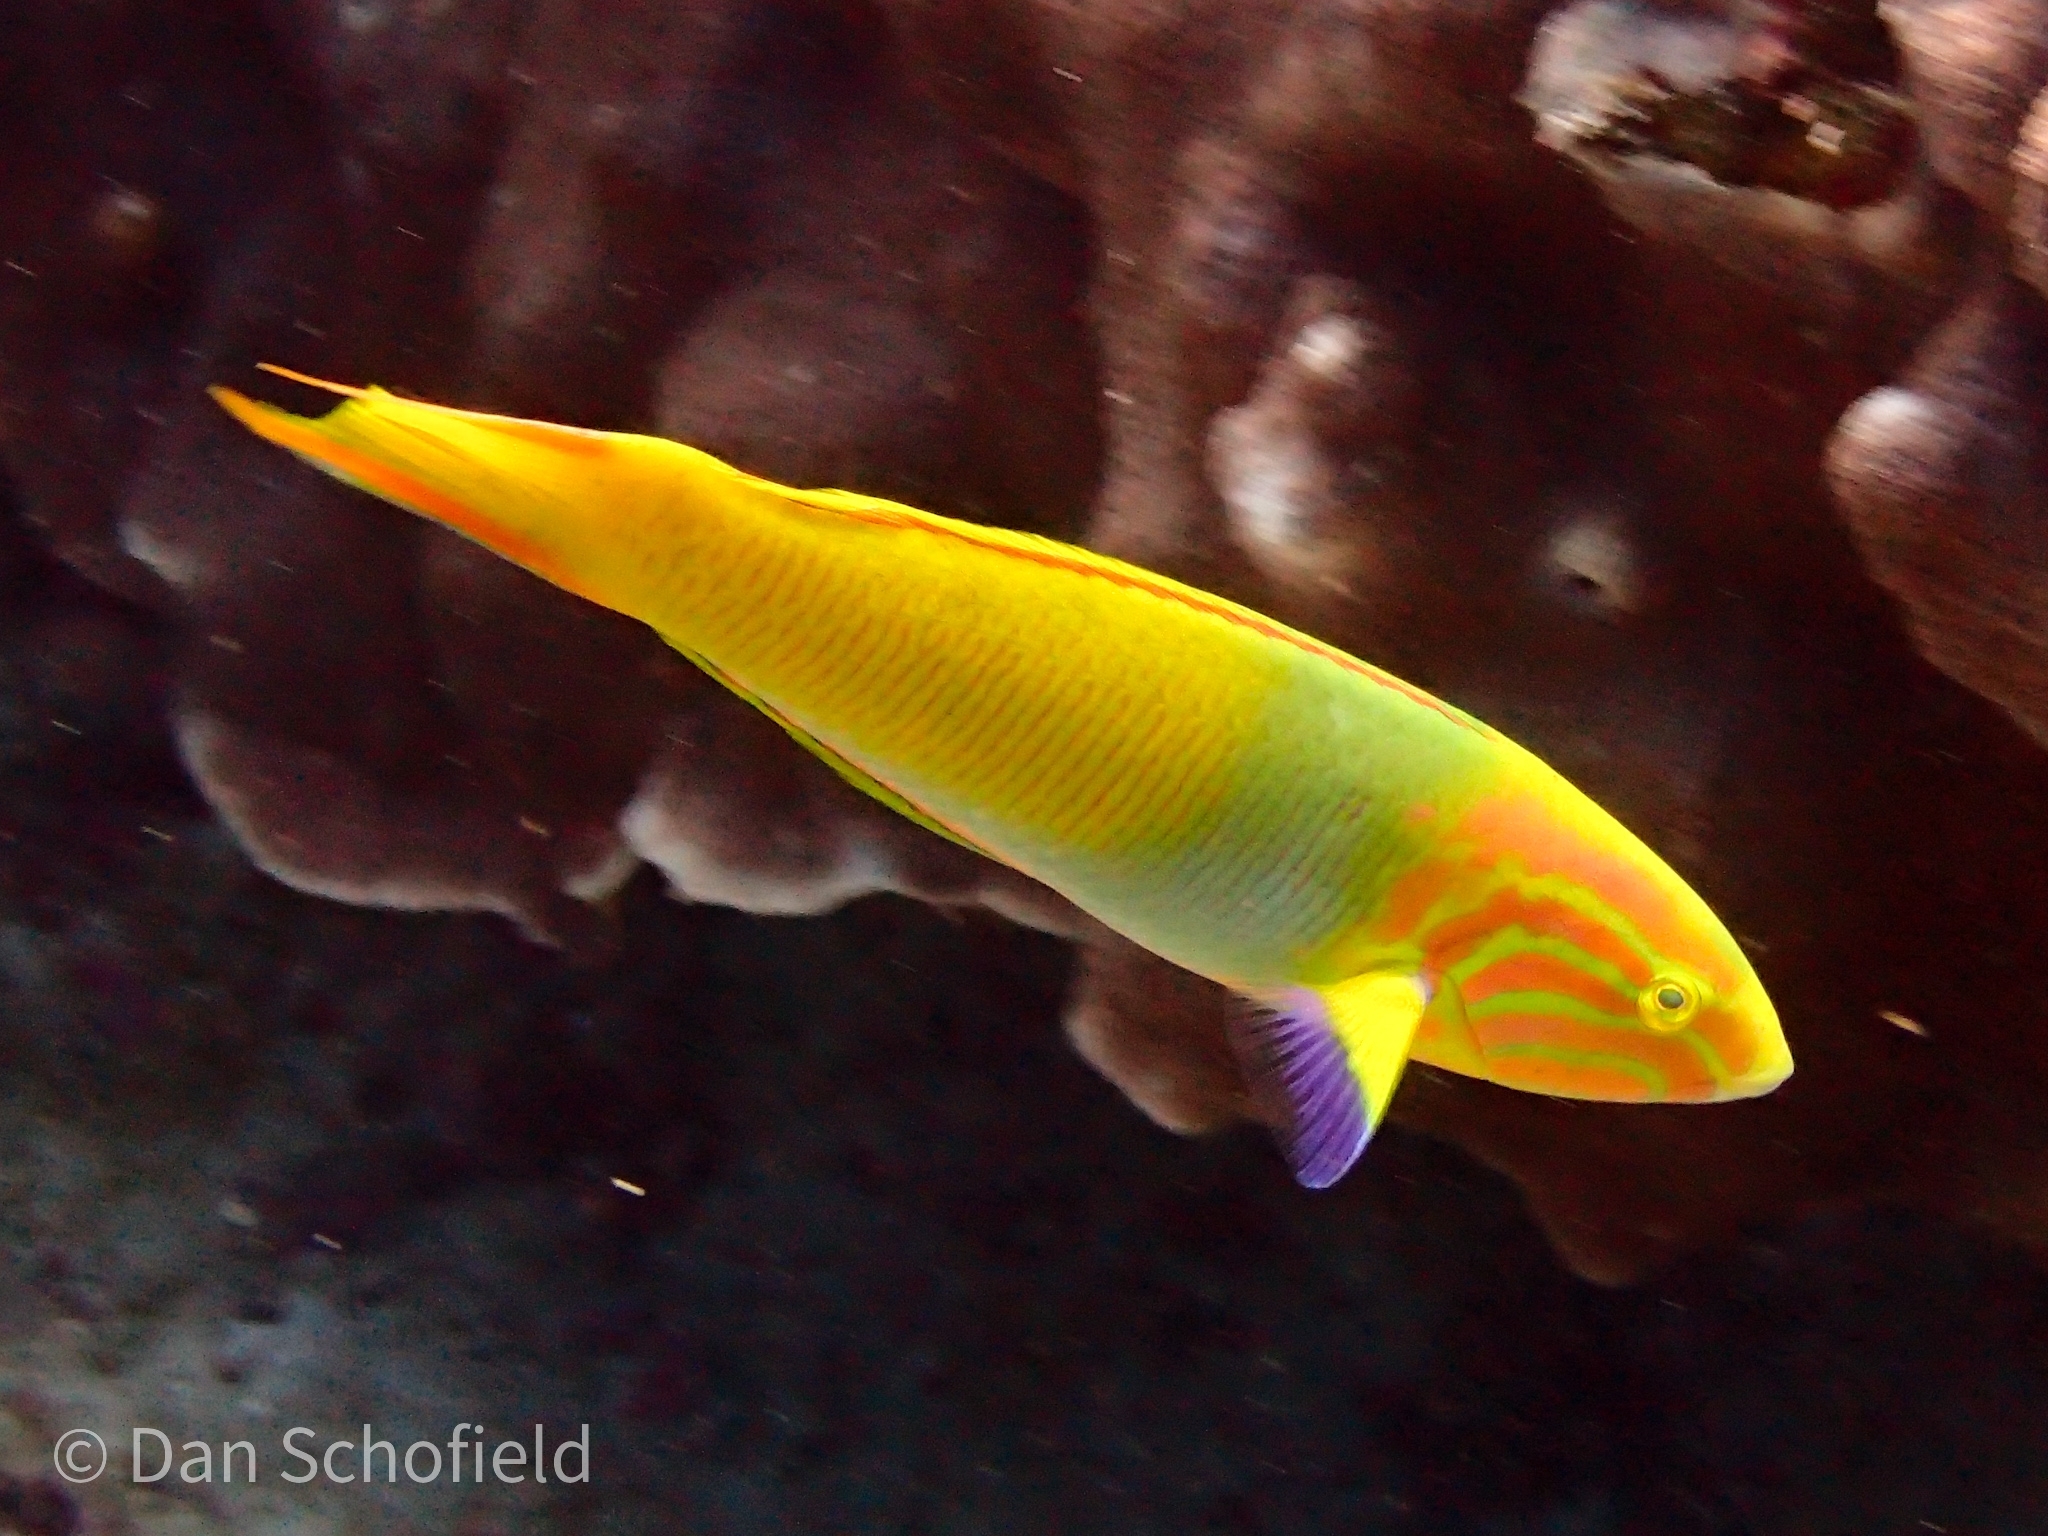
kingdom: Animalia
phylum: Chordata
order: Perciformes
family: Labridae
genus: Thalassoma
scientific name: Thalassoma lutescens
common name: Green moon wrasse
